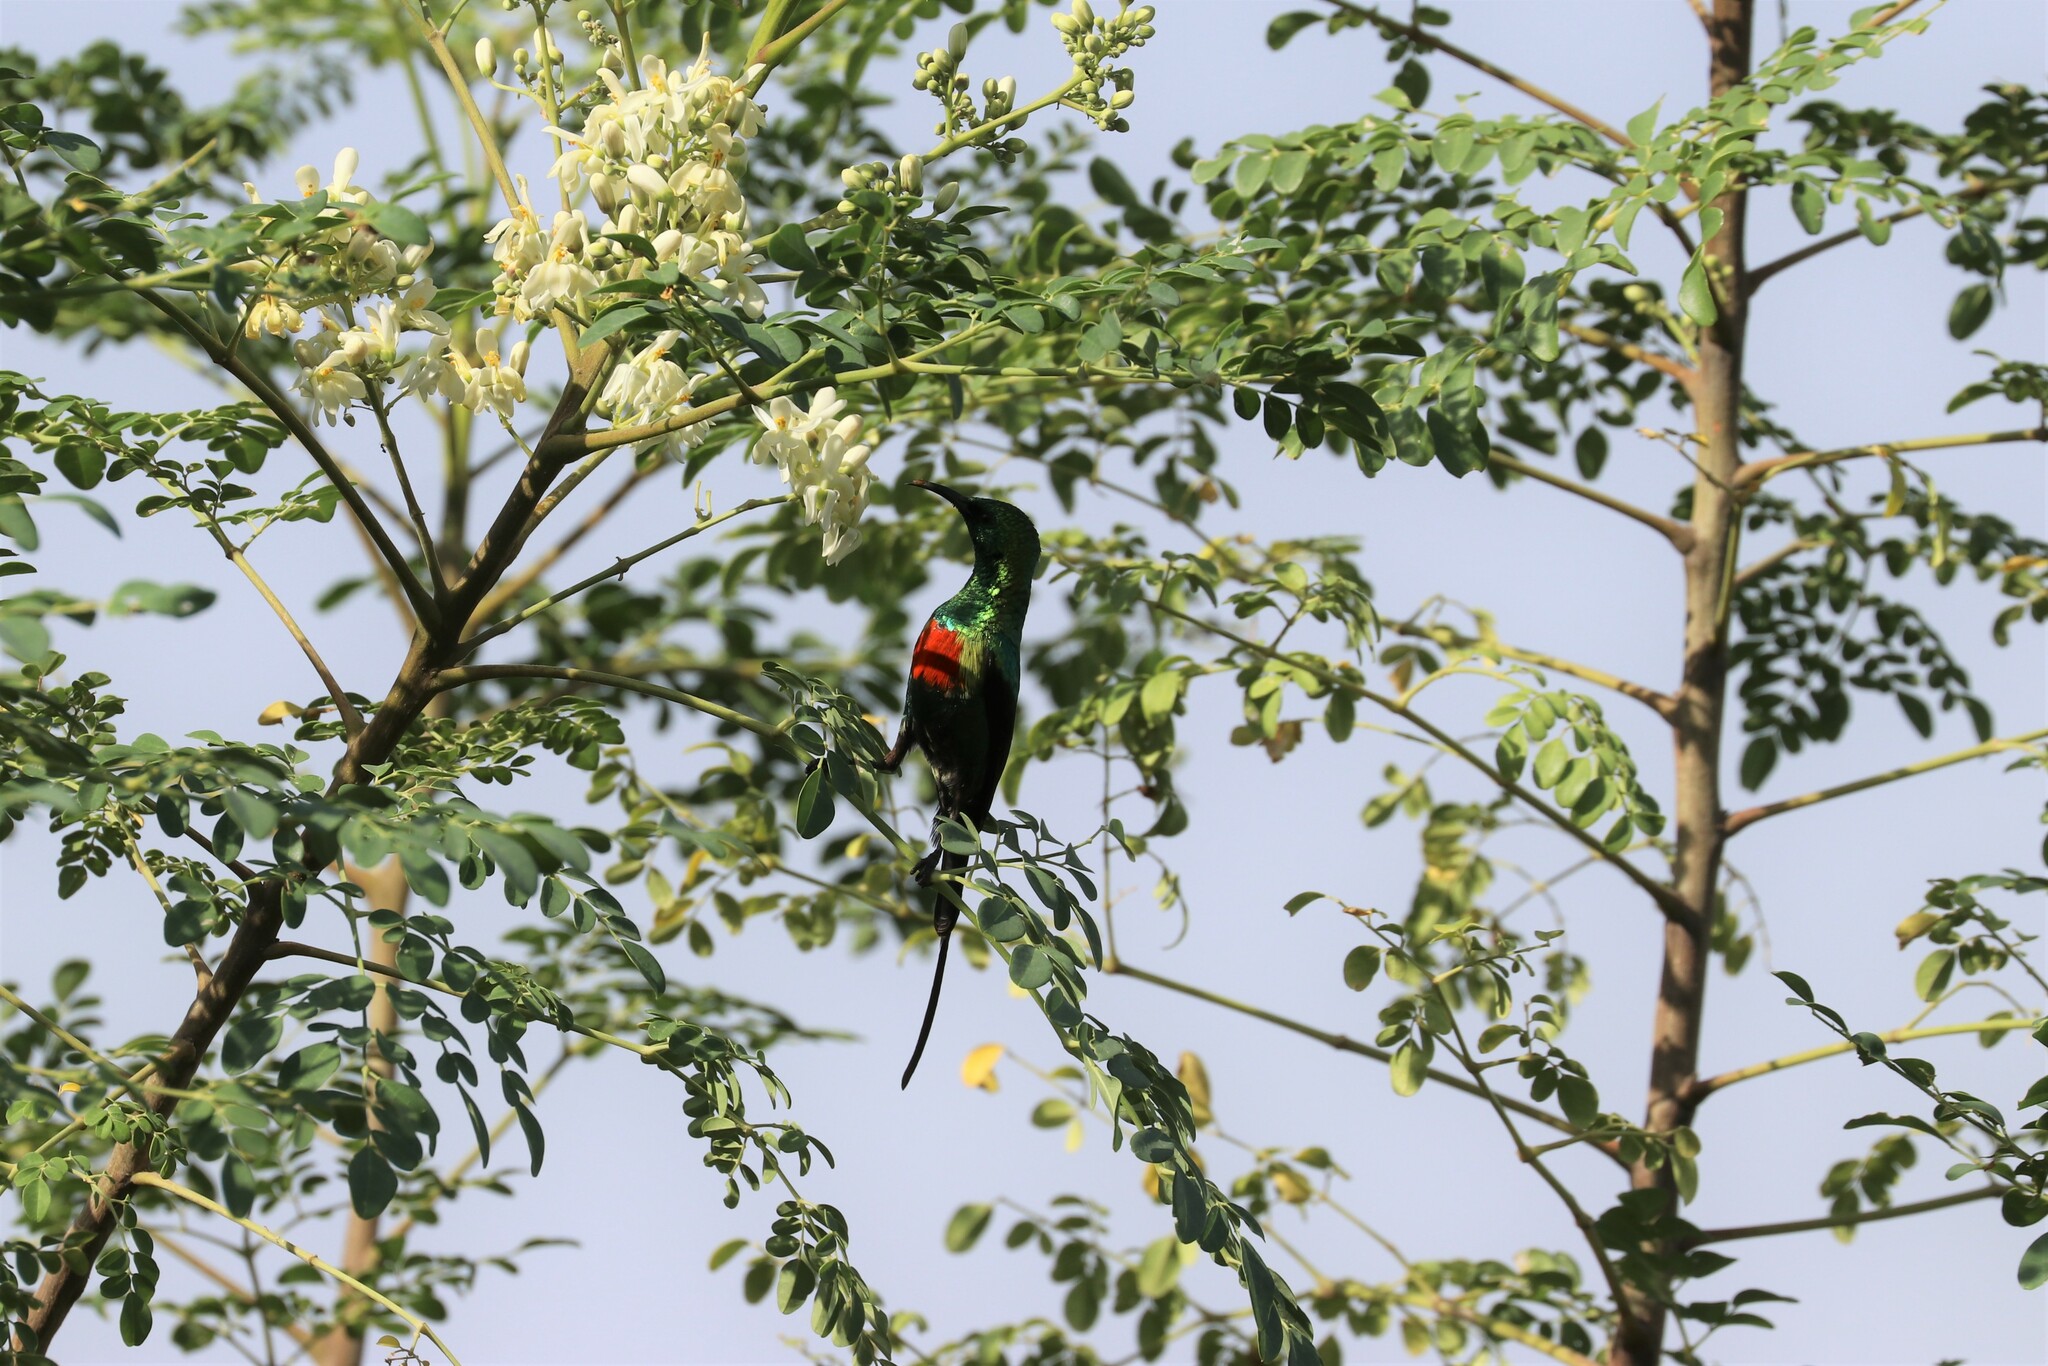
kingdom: Animalia
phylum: Chordata
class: Aves
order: Passeriformes
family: Nectariniidae
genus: Cinnyris
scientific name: Cinnyris pulchellus
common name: Beautiful sunbird
